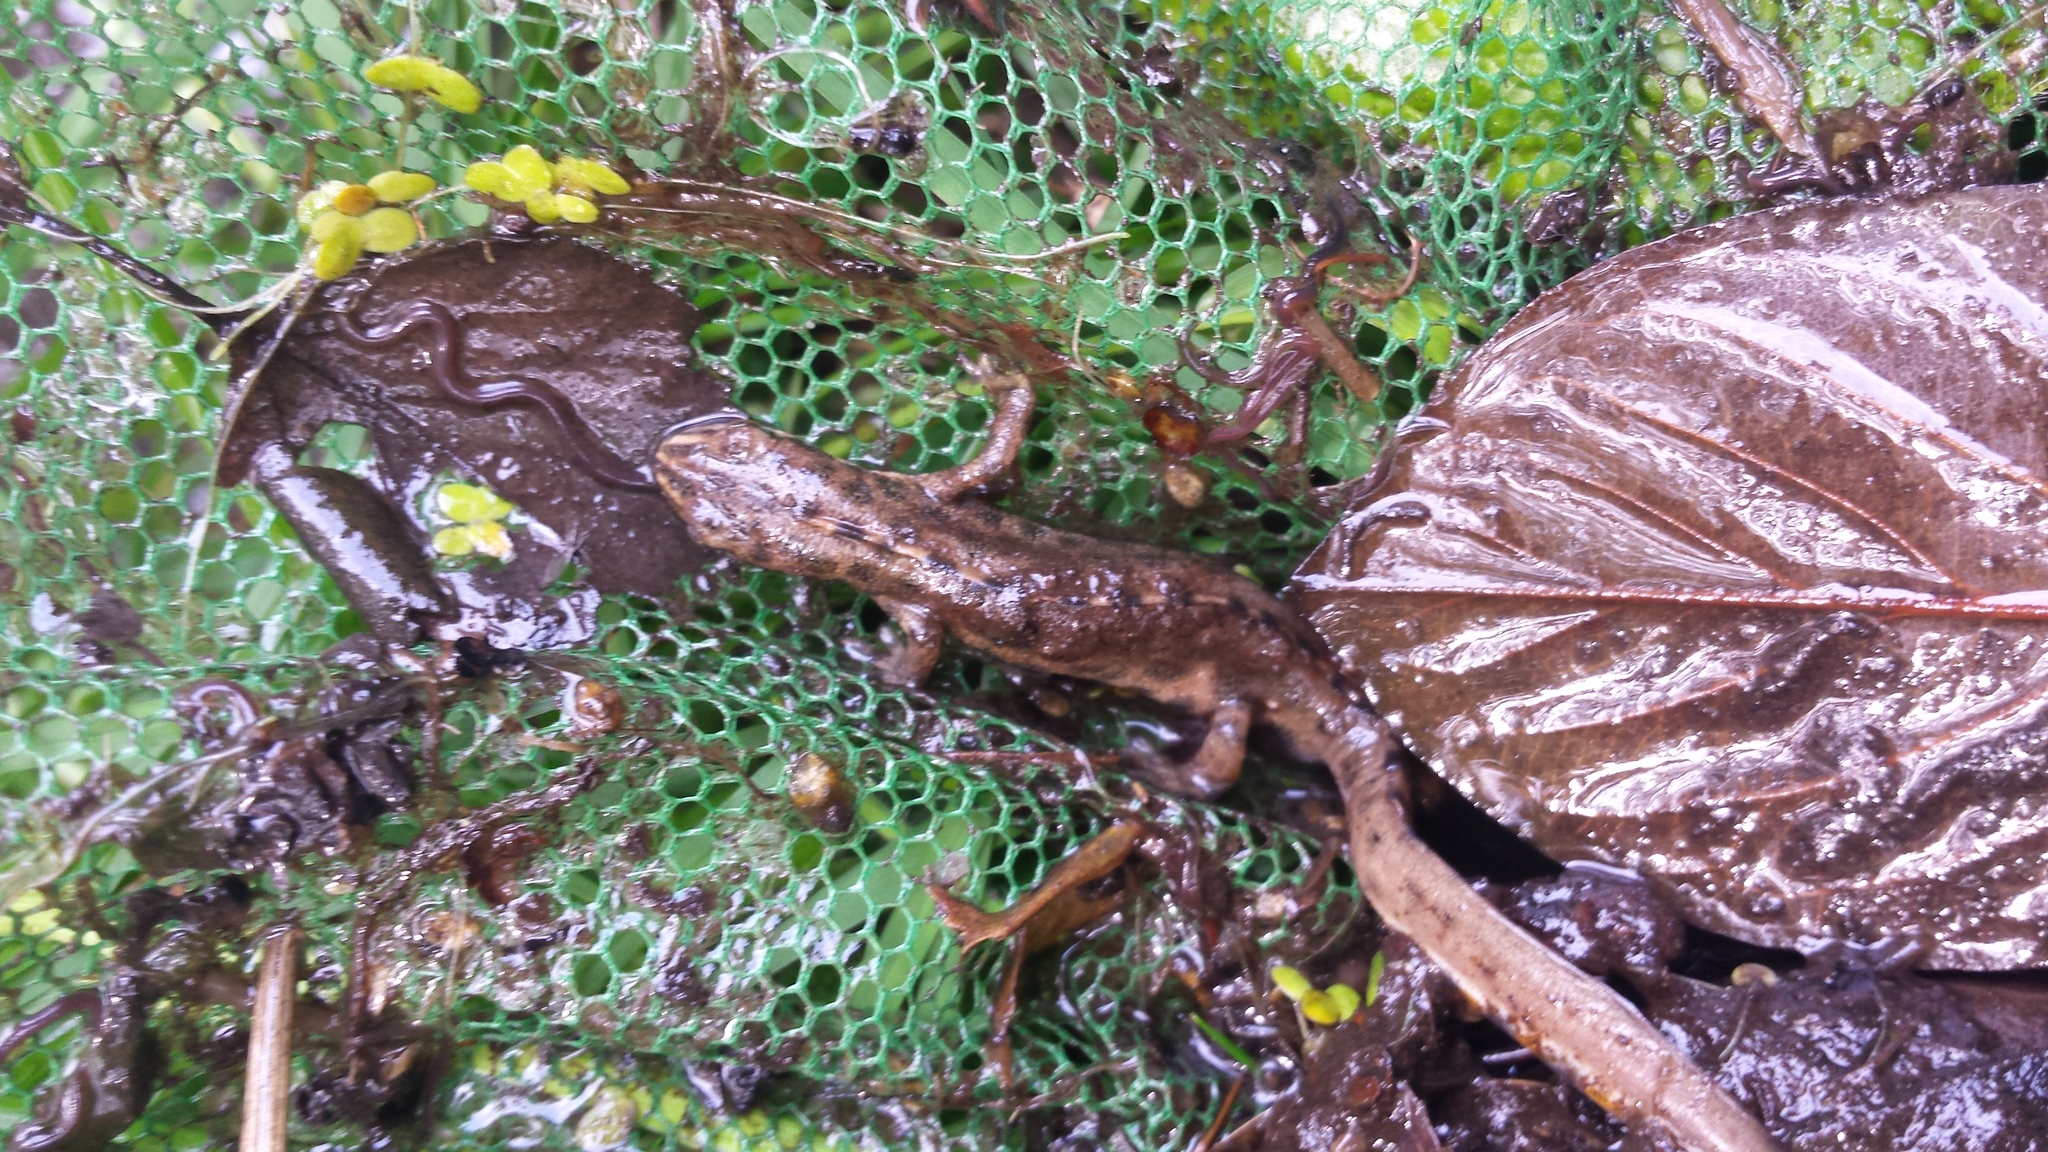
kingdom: Animalia
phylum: Chordata
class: Amphibia
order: Caudata
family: Salamandridae
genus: Lissotriton
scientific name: Lissotriton vulgaris
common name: Smooth newt
